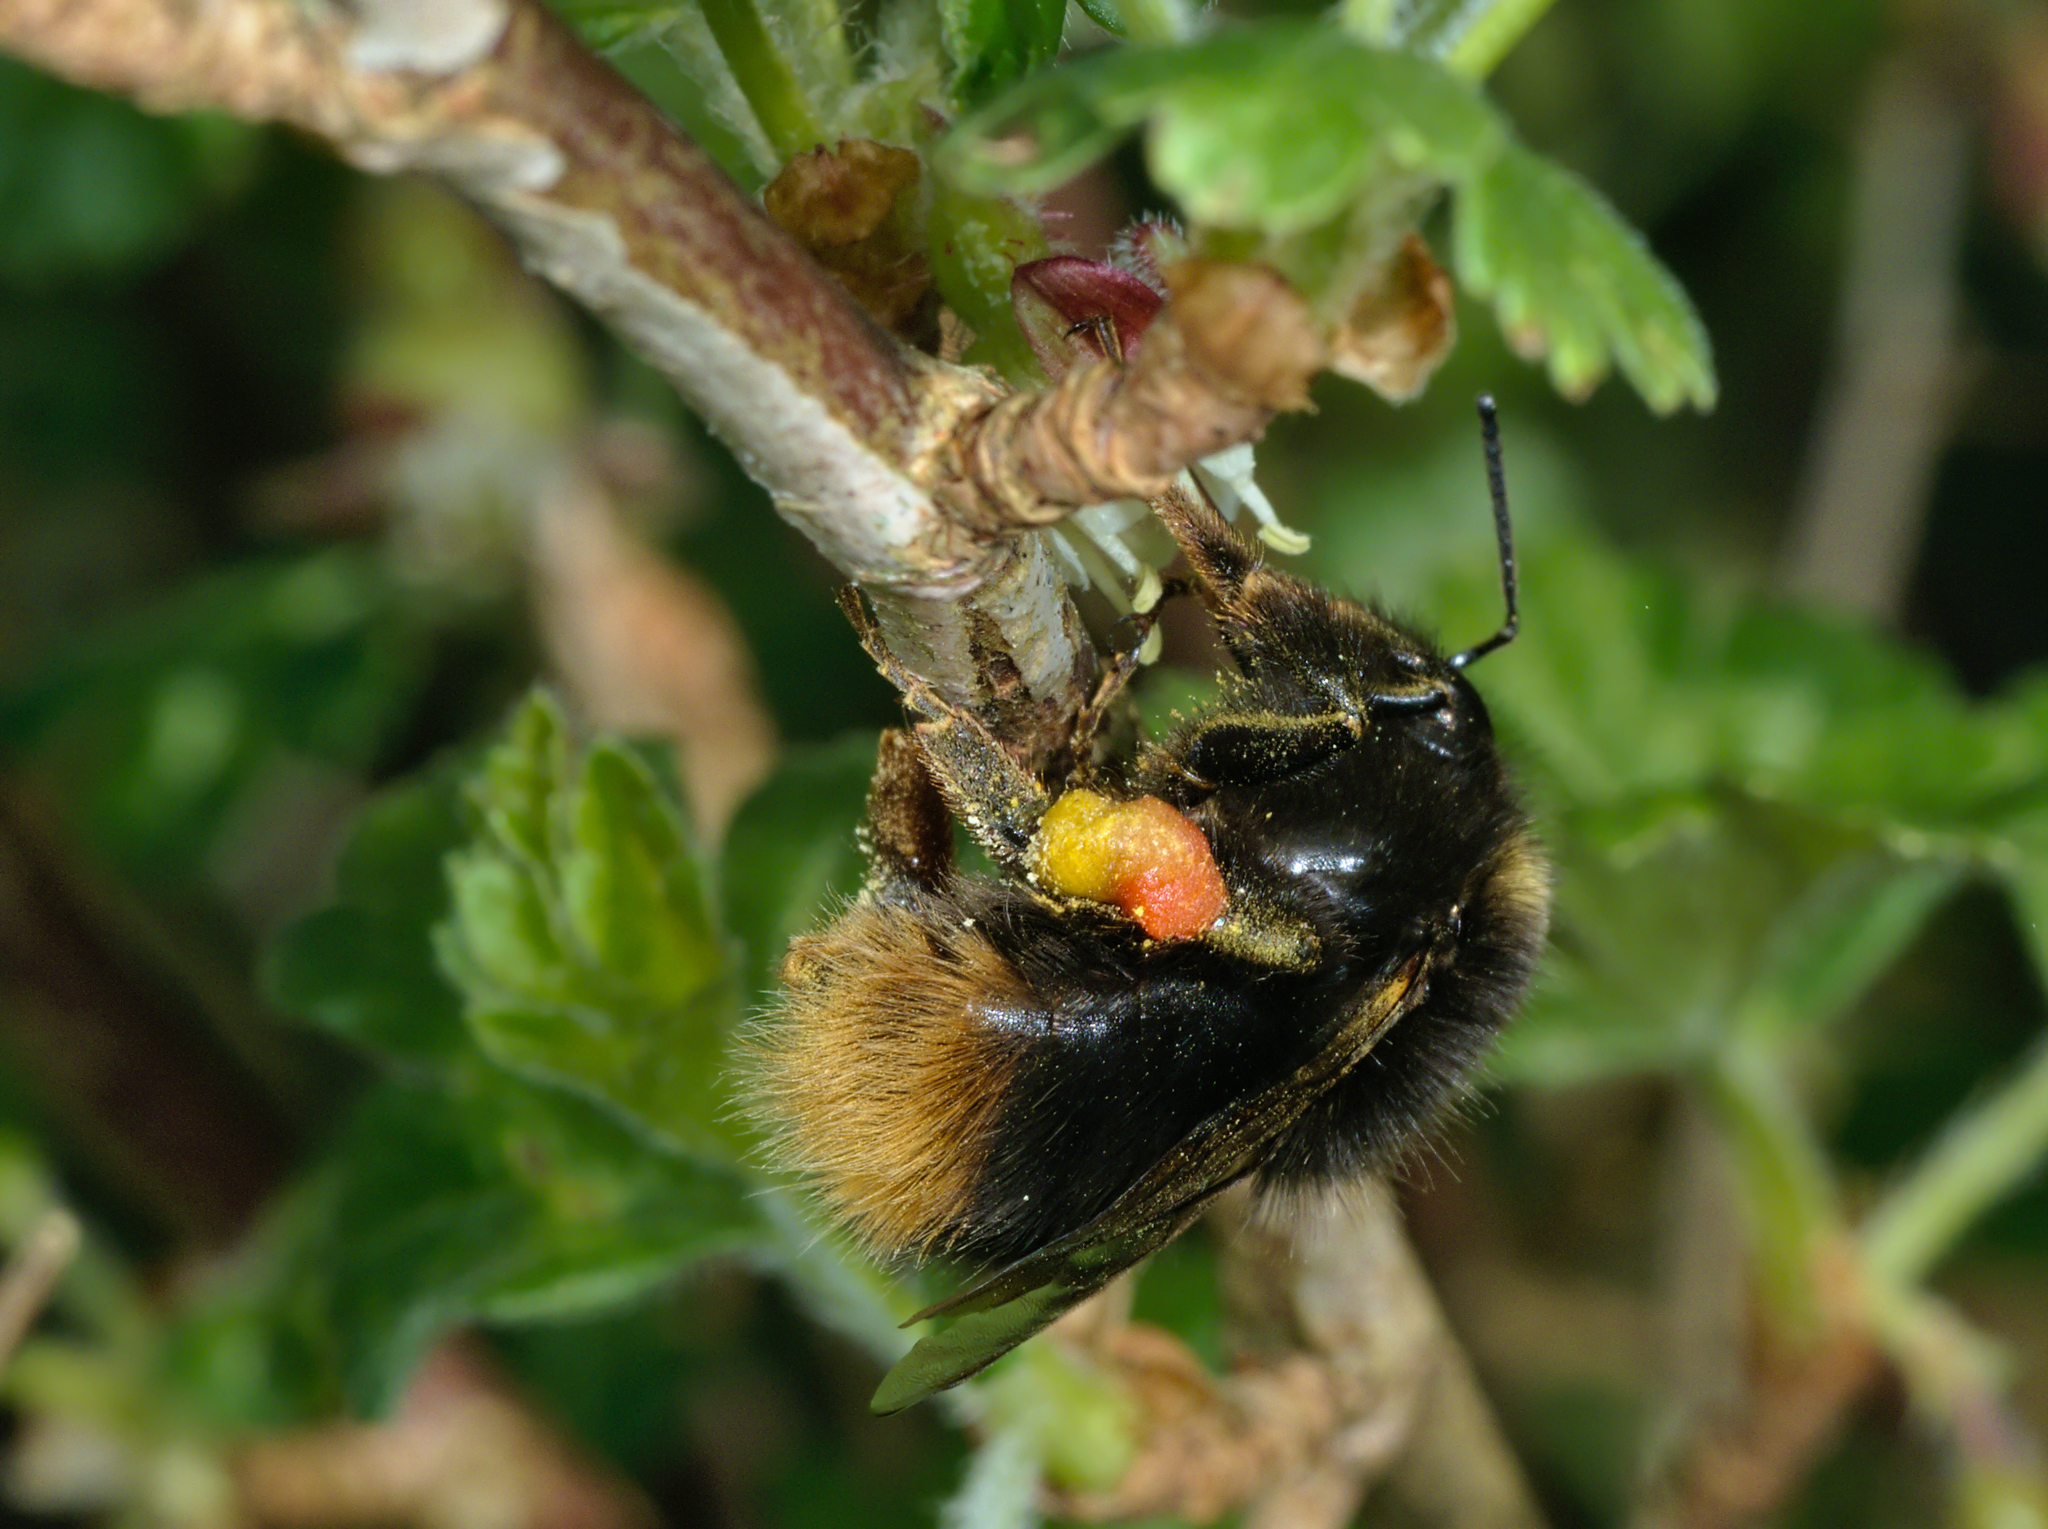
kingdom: Animalia
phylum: Arthropoda
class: Insecta
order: Hymenoptera
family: Apidae
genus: Bombus
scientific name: Bombus pratorum
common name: Early humble-bee
